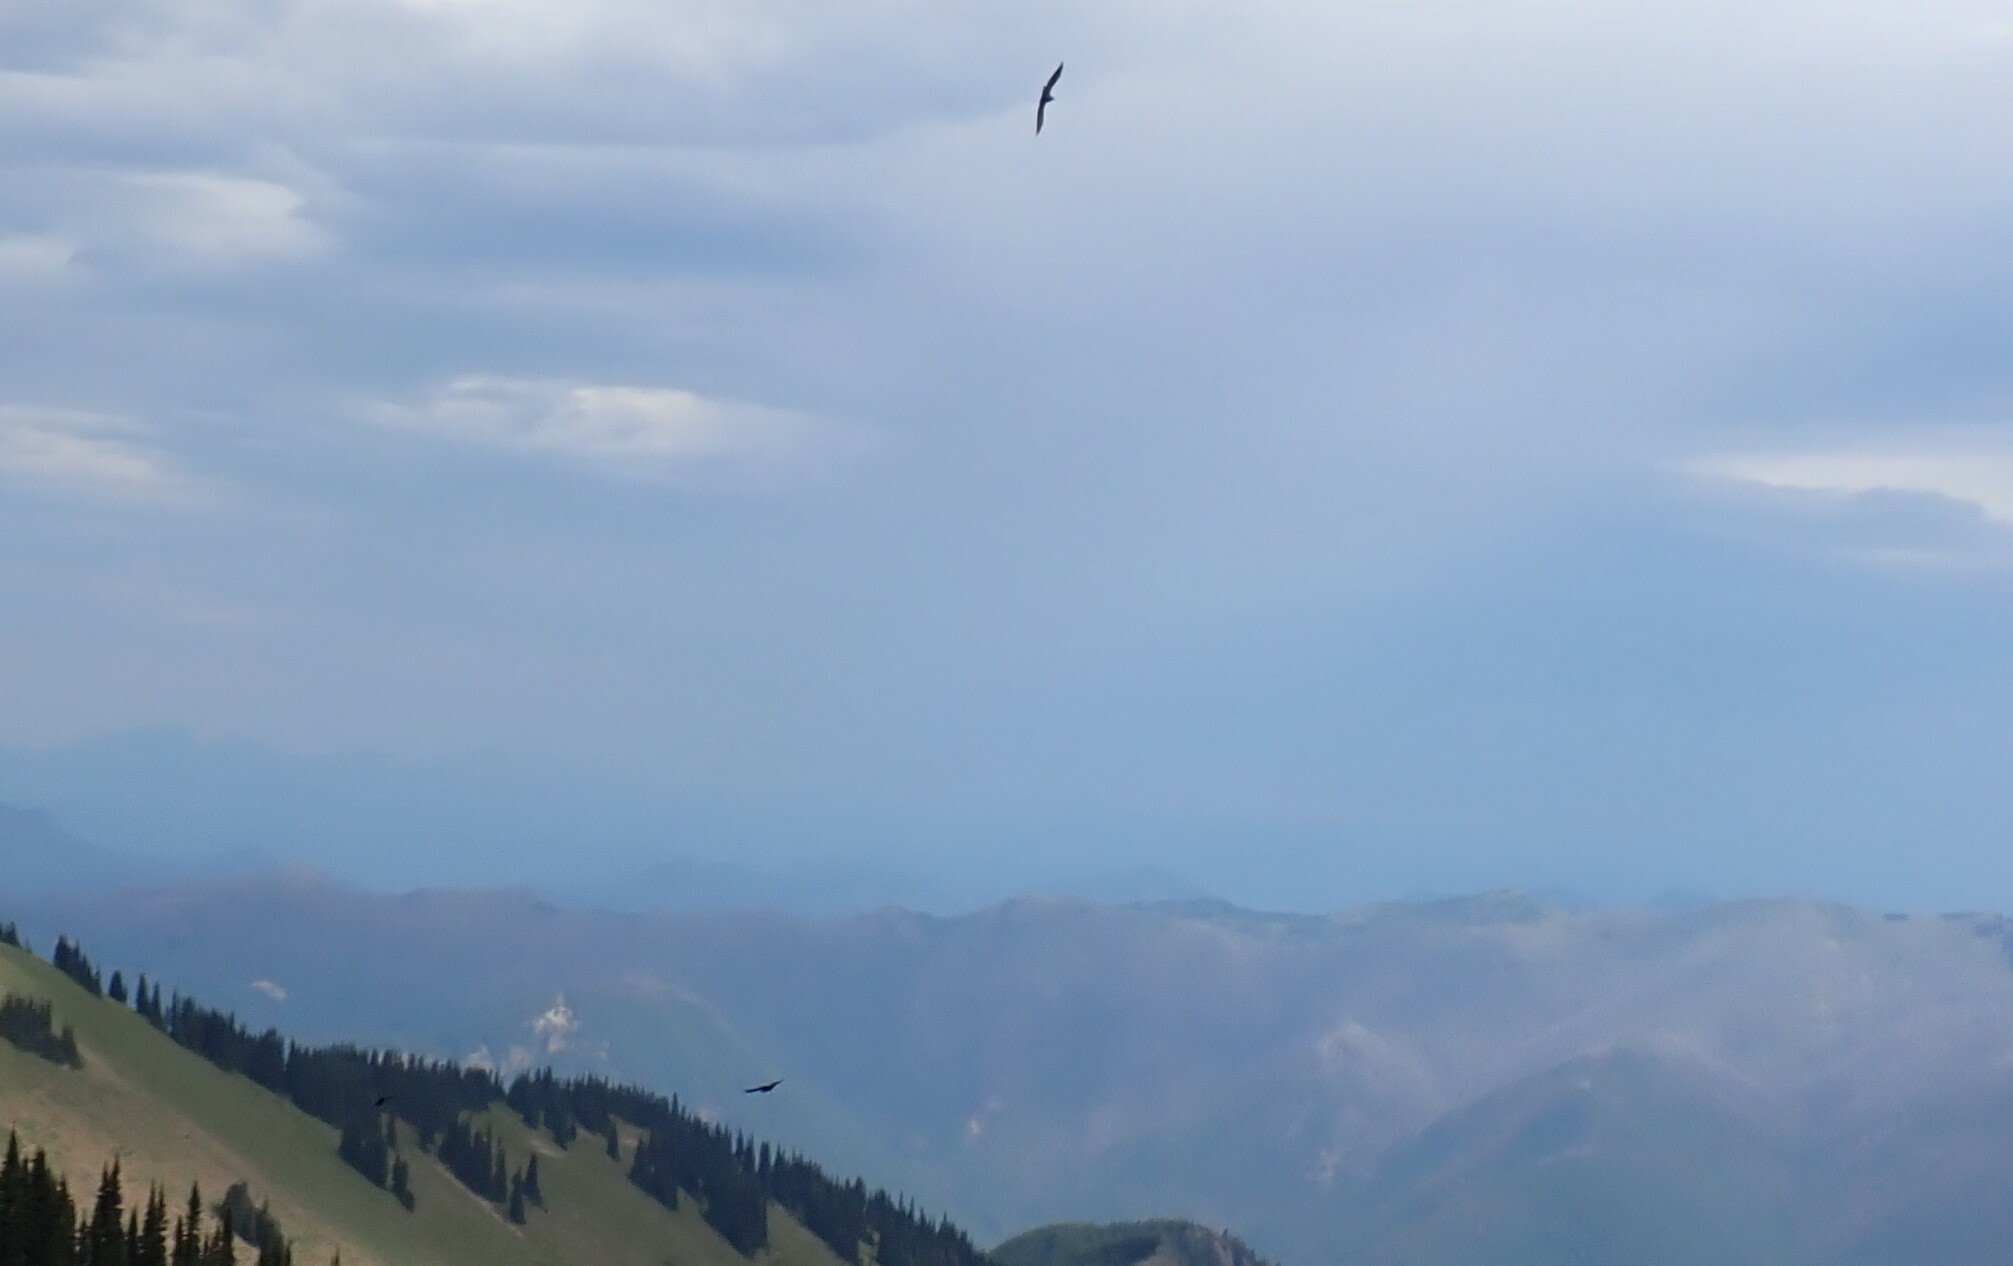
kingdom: Animalia
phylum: Chordata
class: Aves
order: Passeriformes
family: Corvidae
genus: Corvus
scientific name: Corvus corax
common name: Common raven
